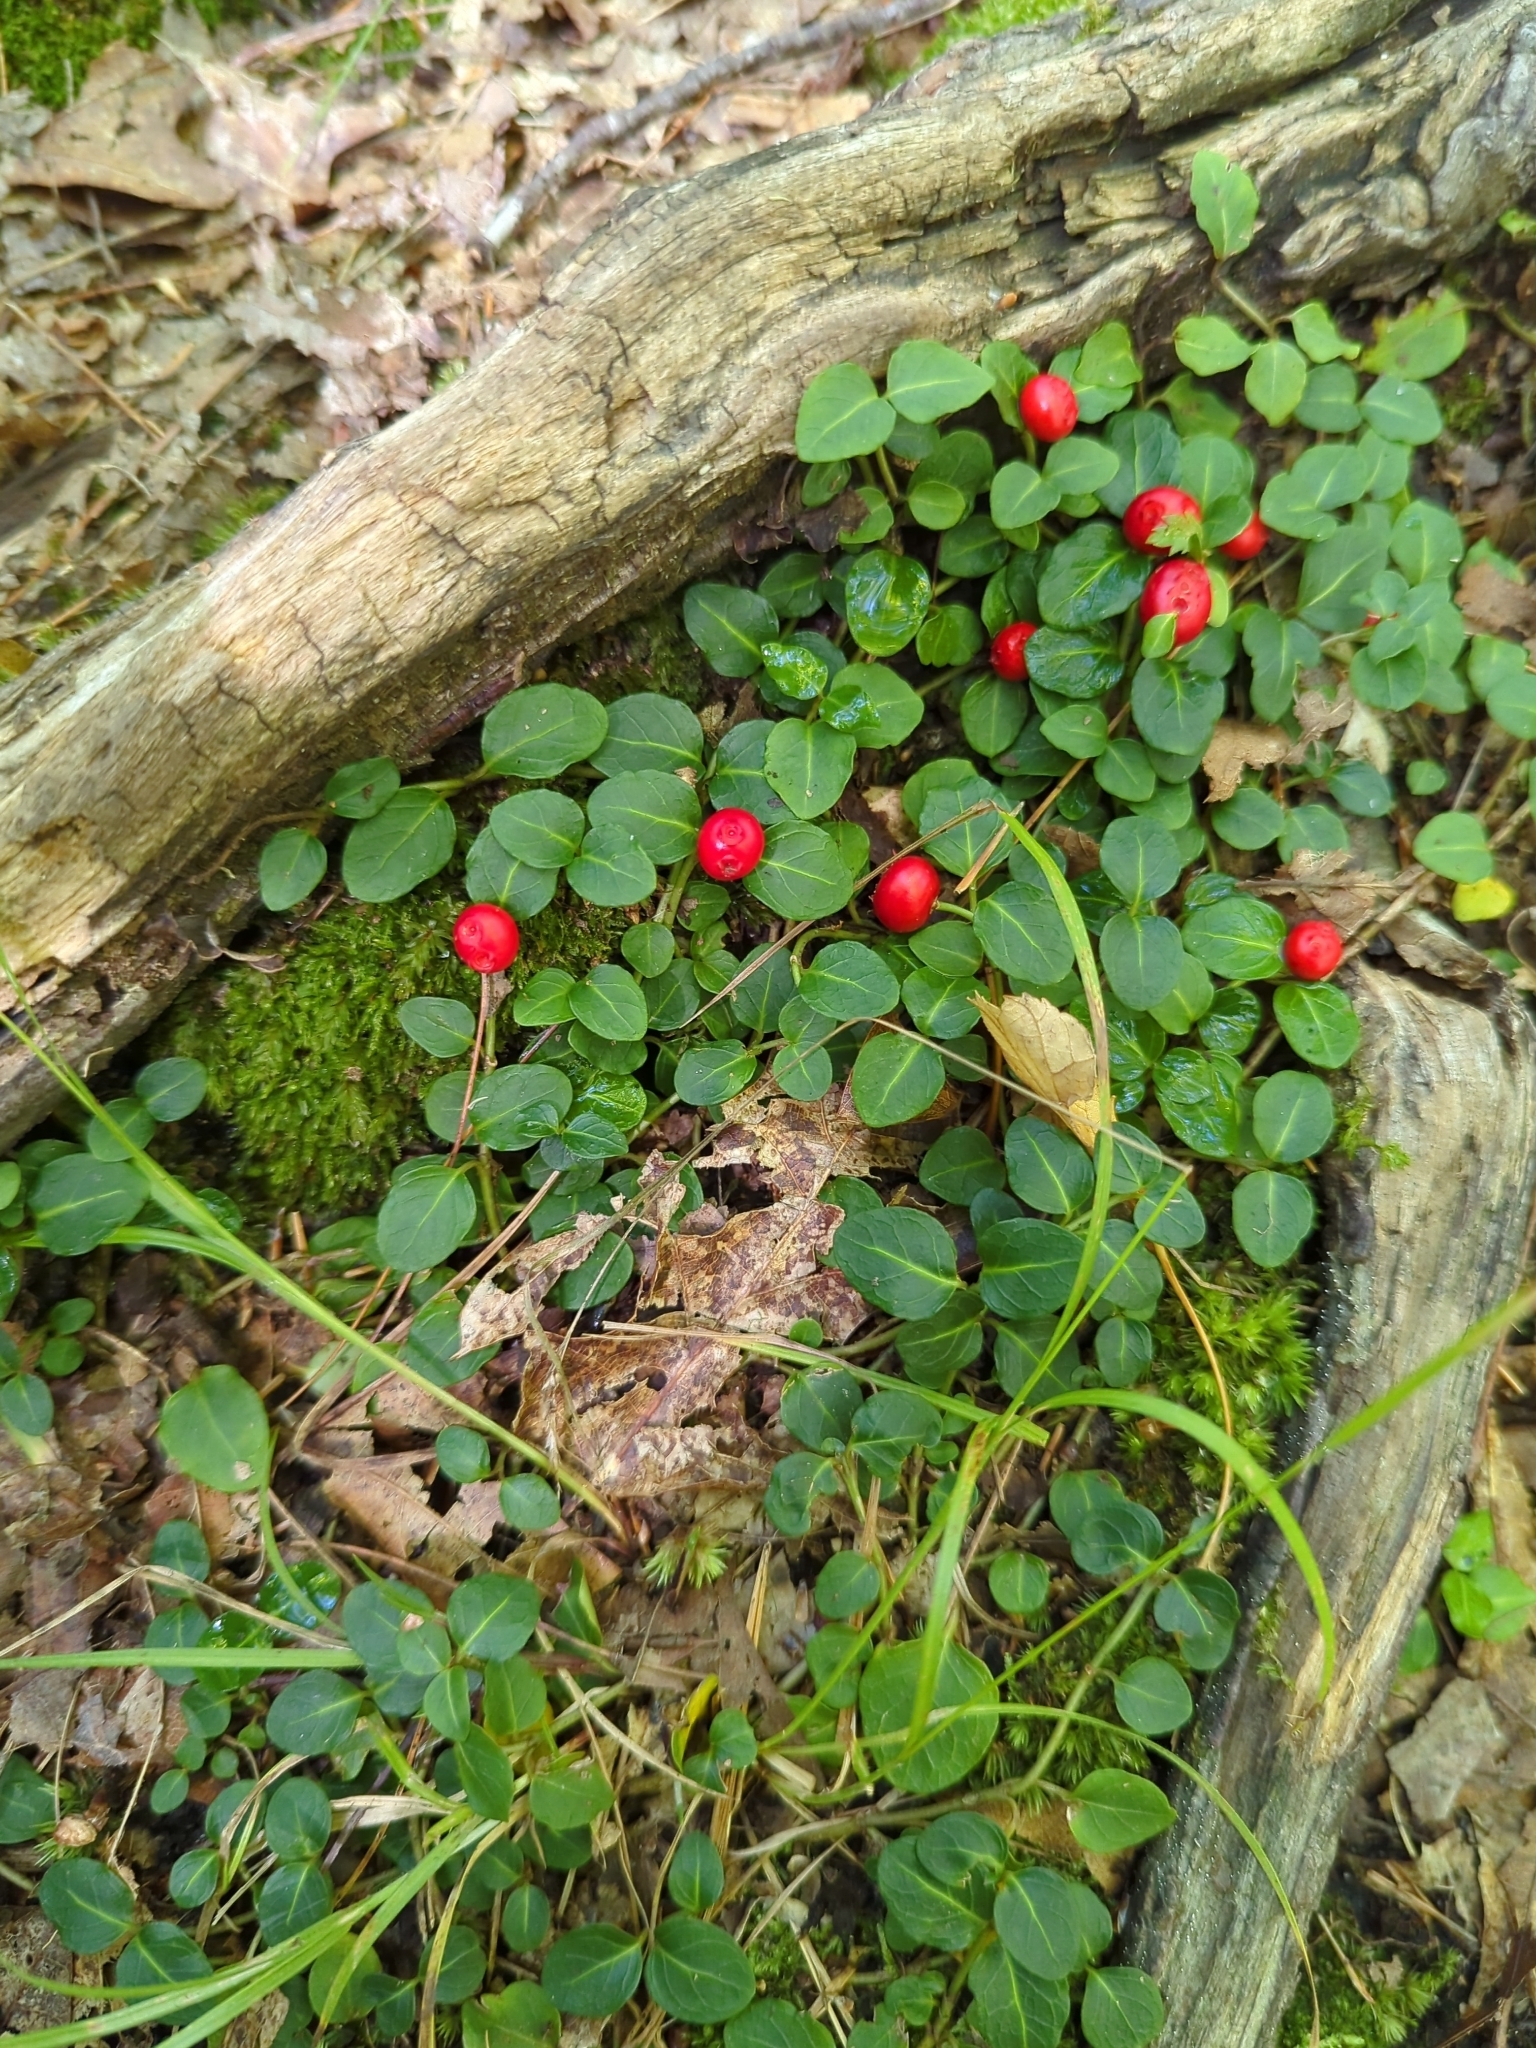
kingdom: Plantae
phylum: Tracheophyta
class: Magnoliopsida
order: Gentianales
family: Rubiaceae
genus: Mitchella
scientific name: Mitchella repens
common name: Partridge-berry
